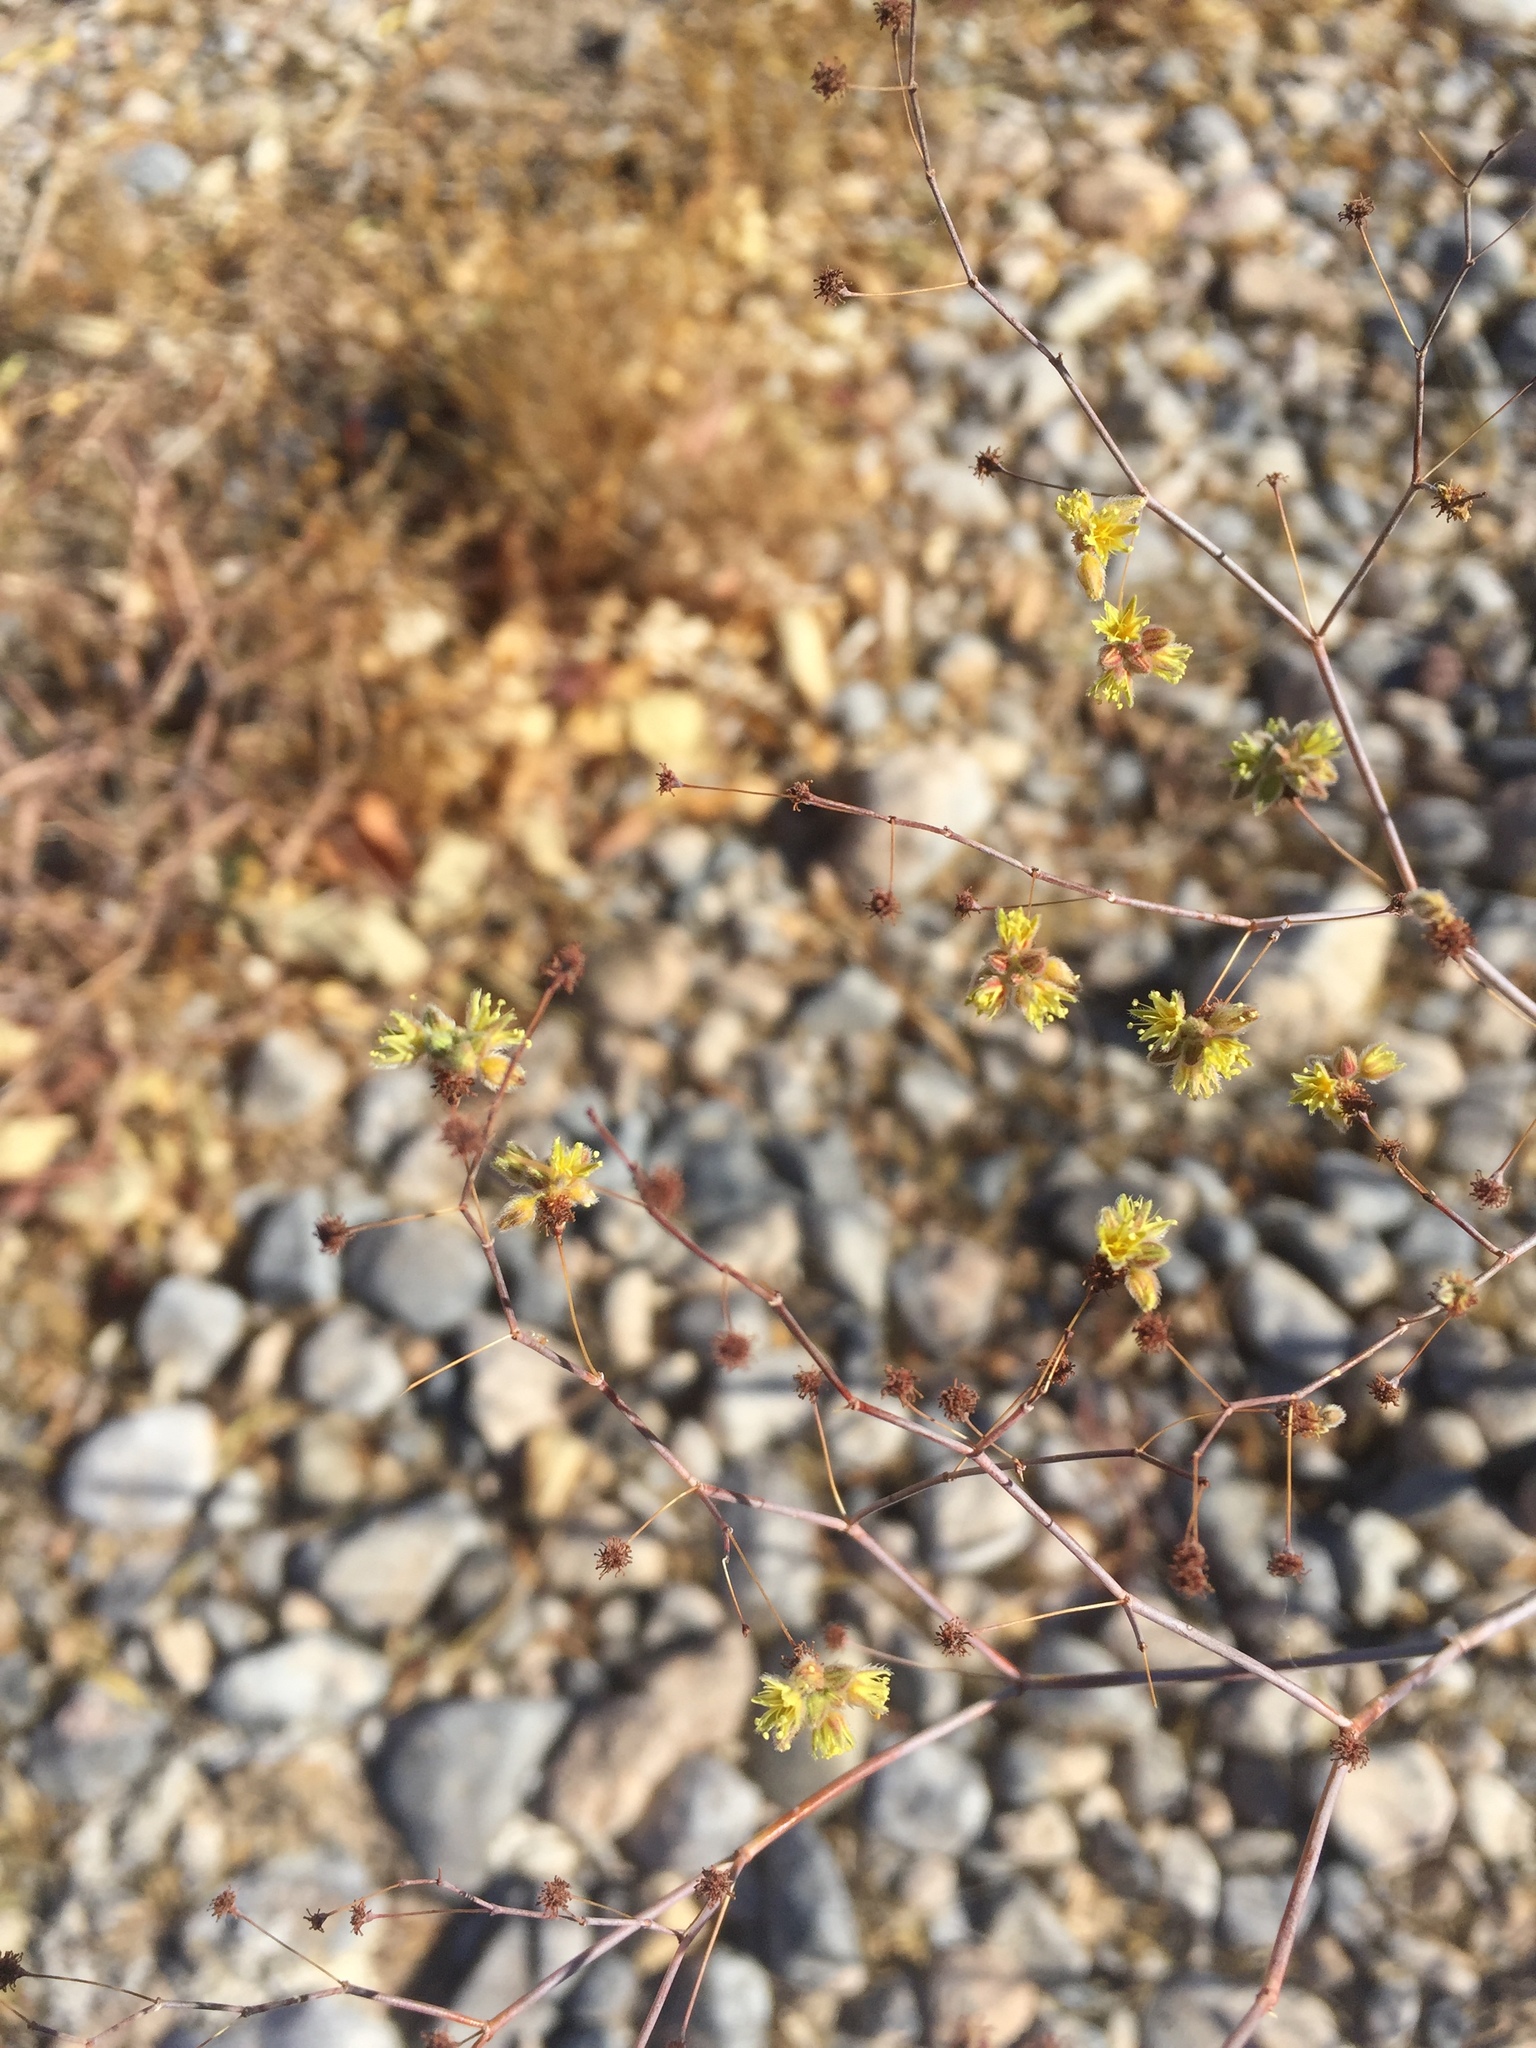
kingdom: Plantae
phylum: Tracheophyta
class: Magnoliopsida
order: Caryophyllales
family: Polygonaceae
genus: Eriogonum
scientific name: Eriogonum inflatum
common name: Desert trumpet
